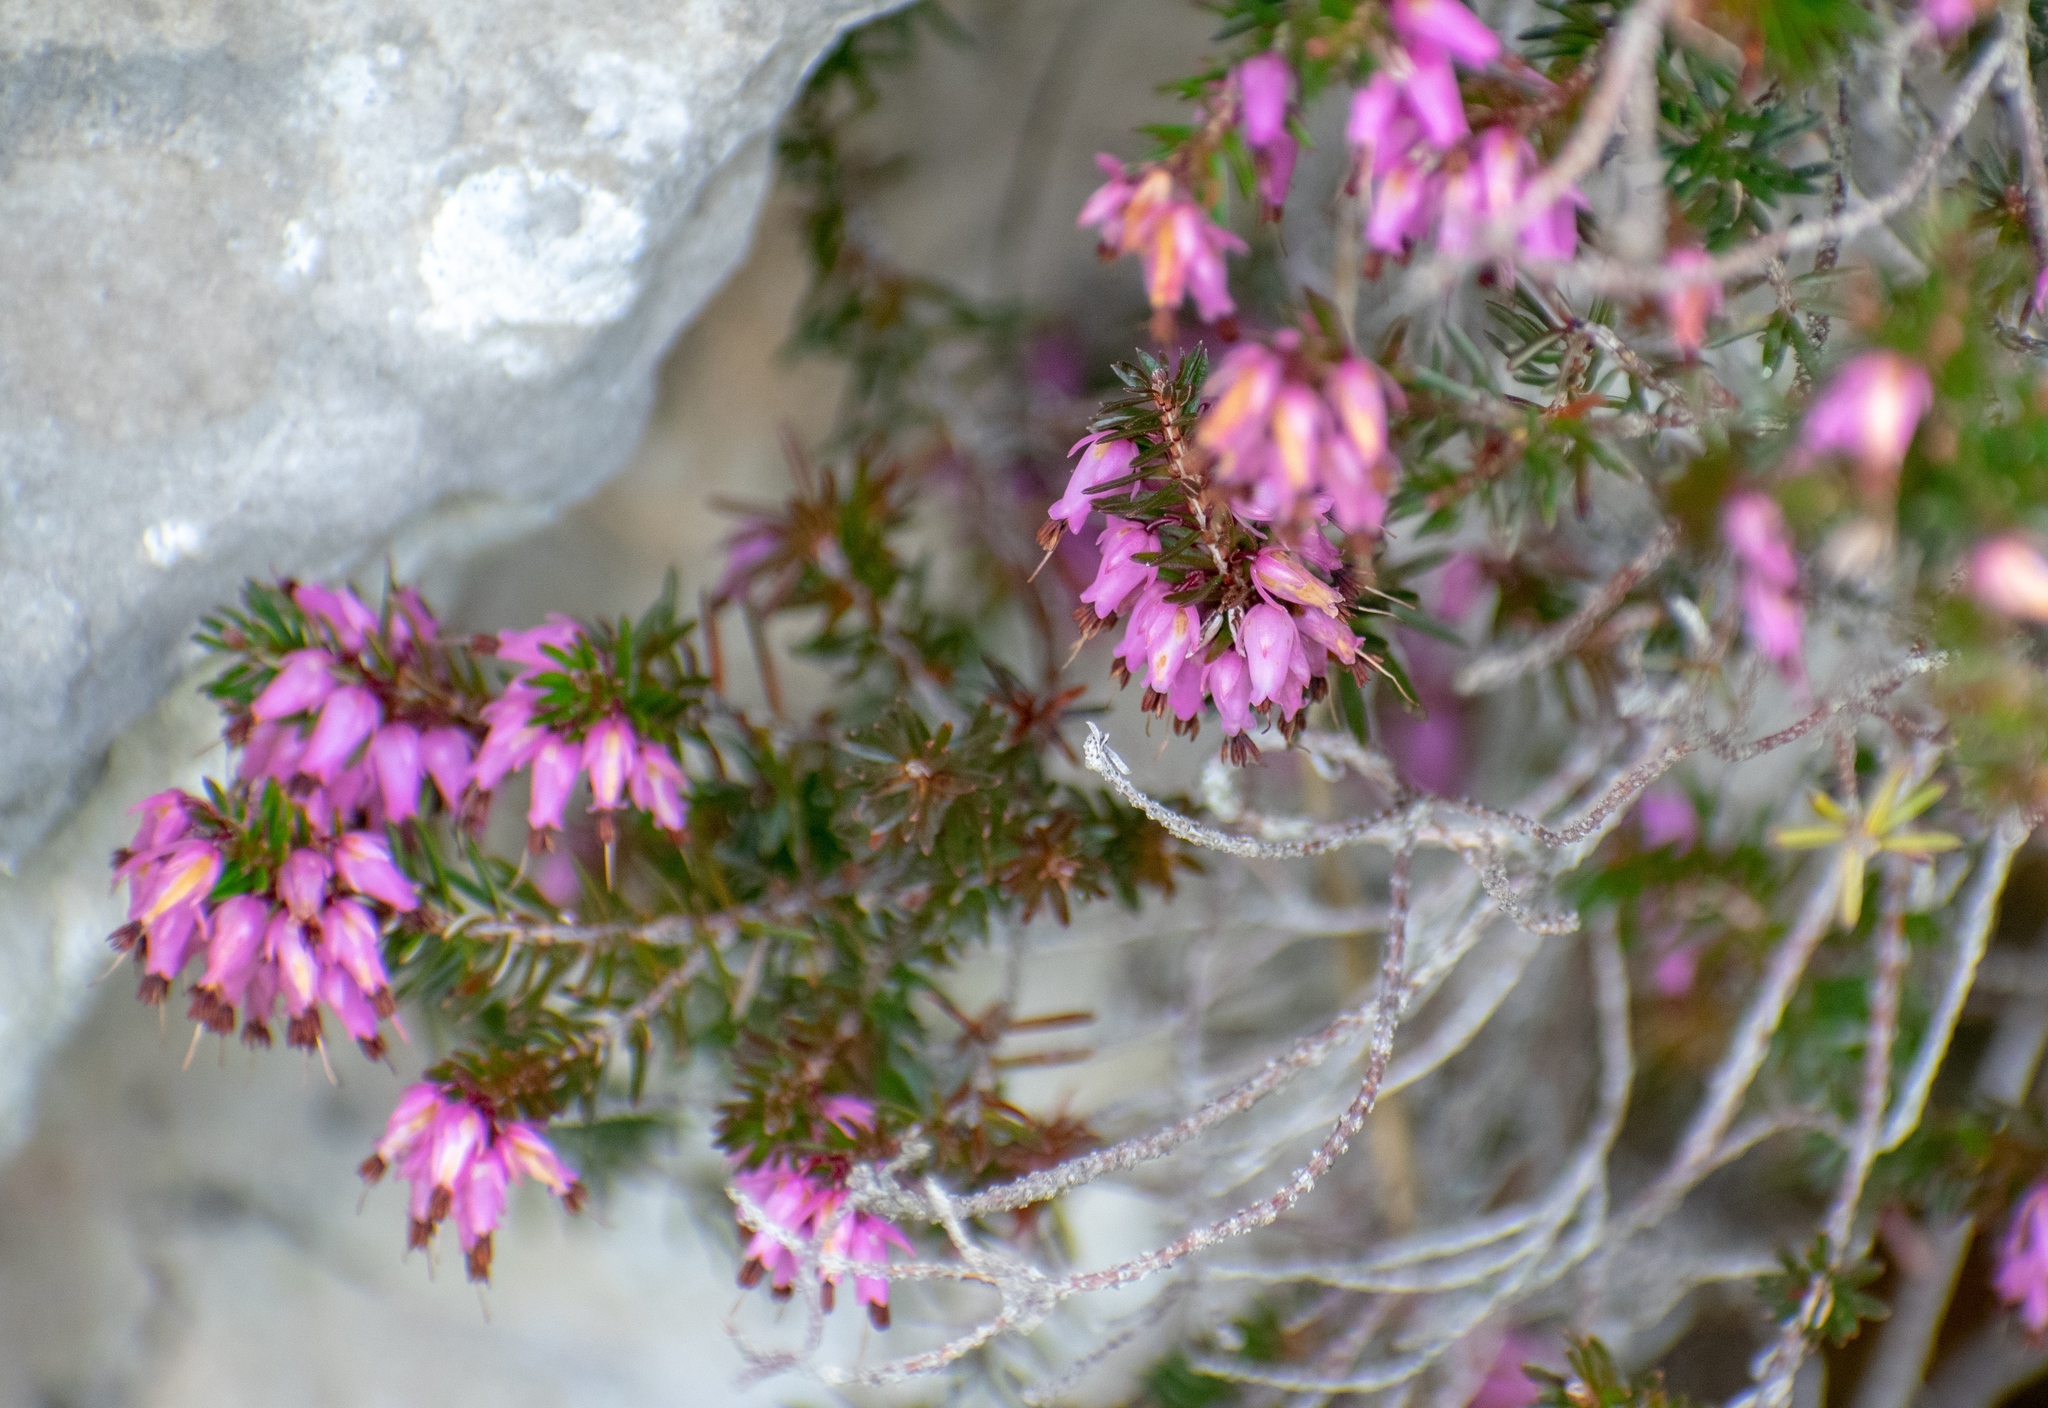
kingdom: Plantae
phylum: Tracheophyta
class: Magnoliopsida
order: Ericales
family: Ericaceae
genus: Erica
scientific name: Erica carnea
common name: Winter heath
